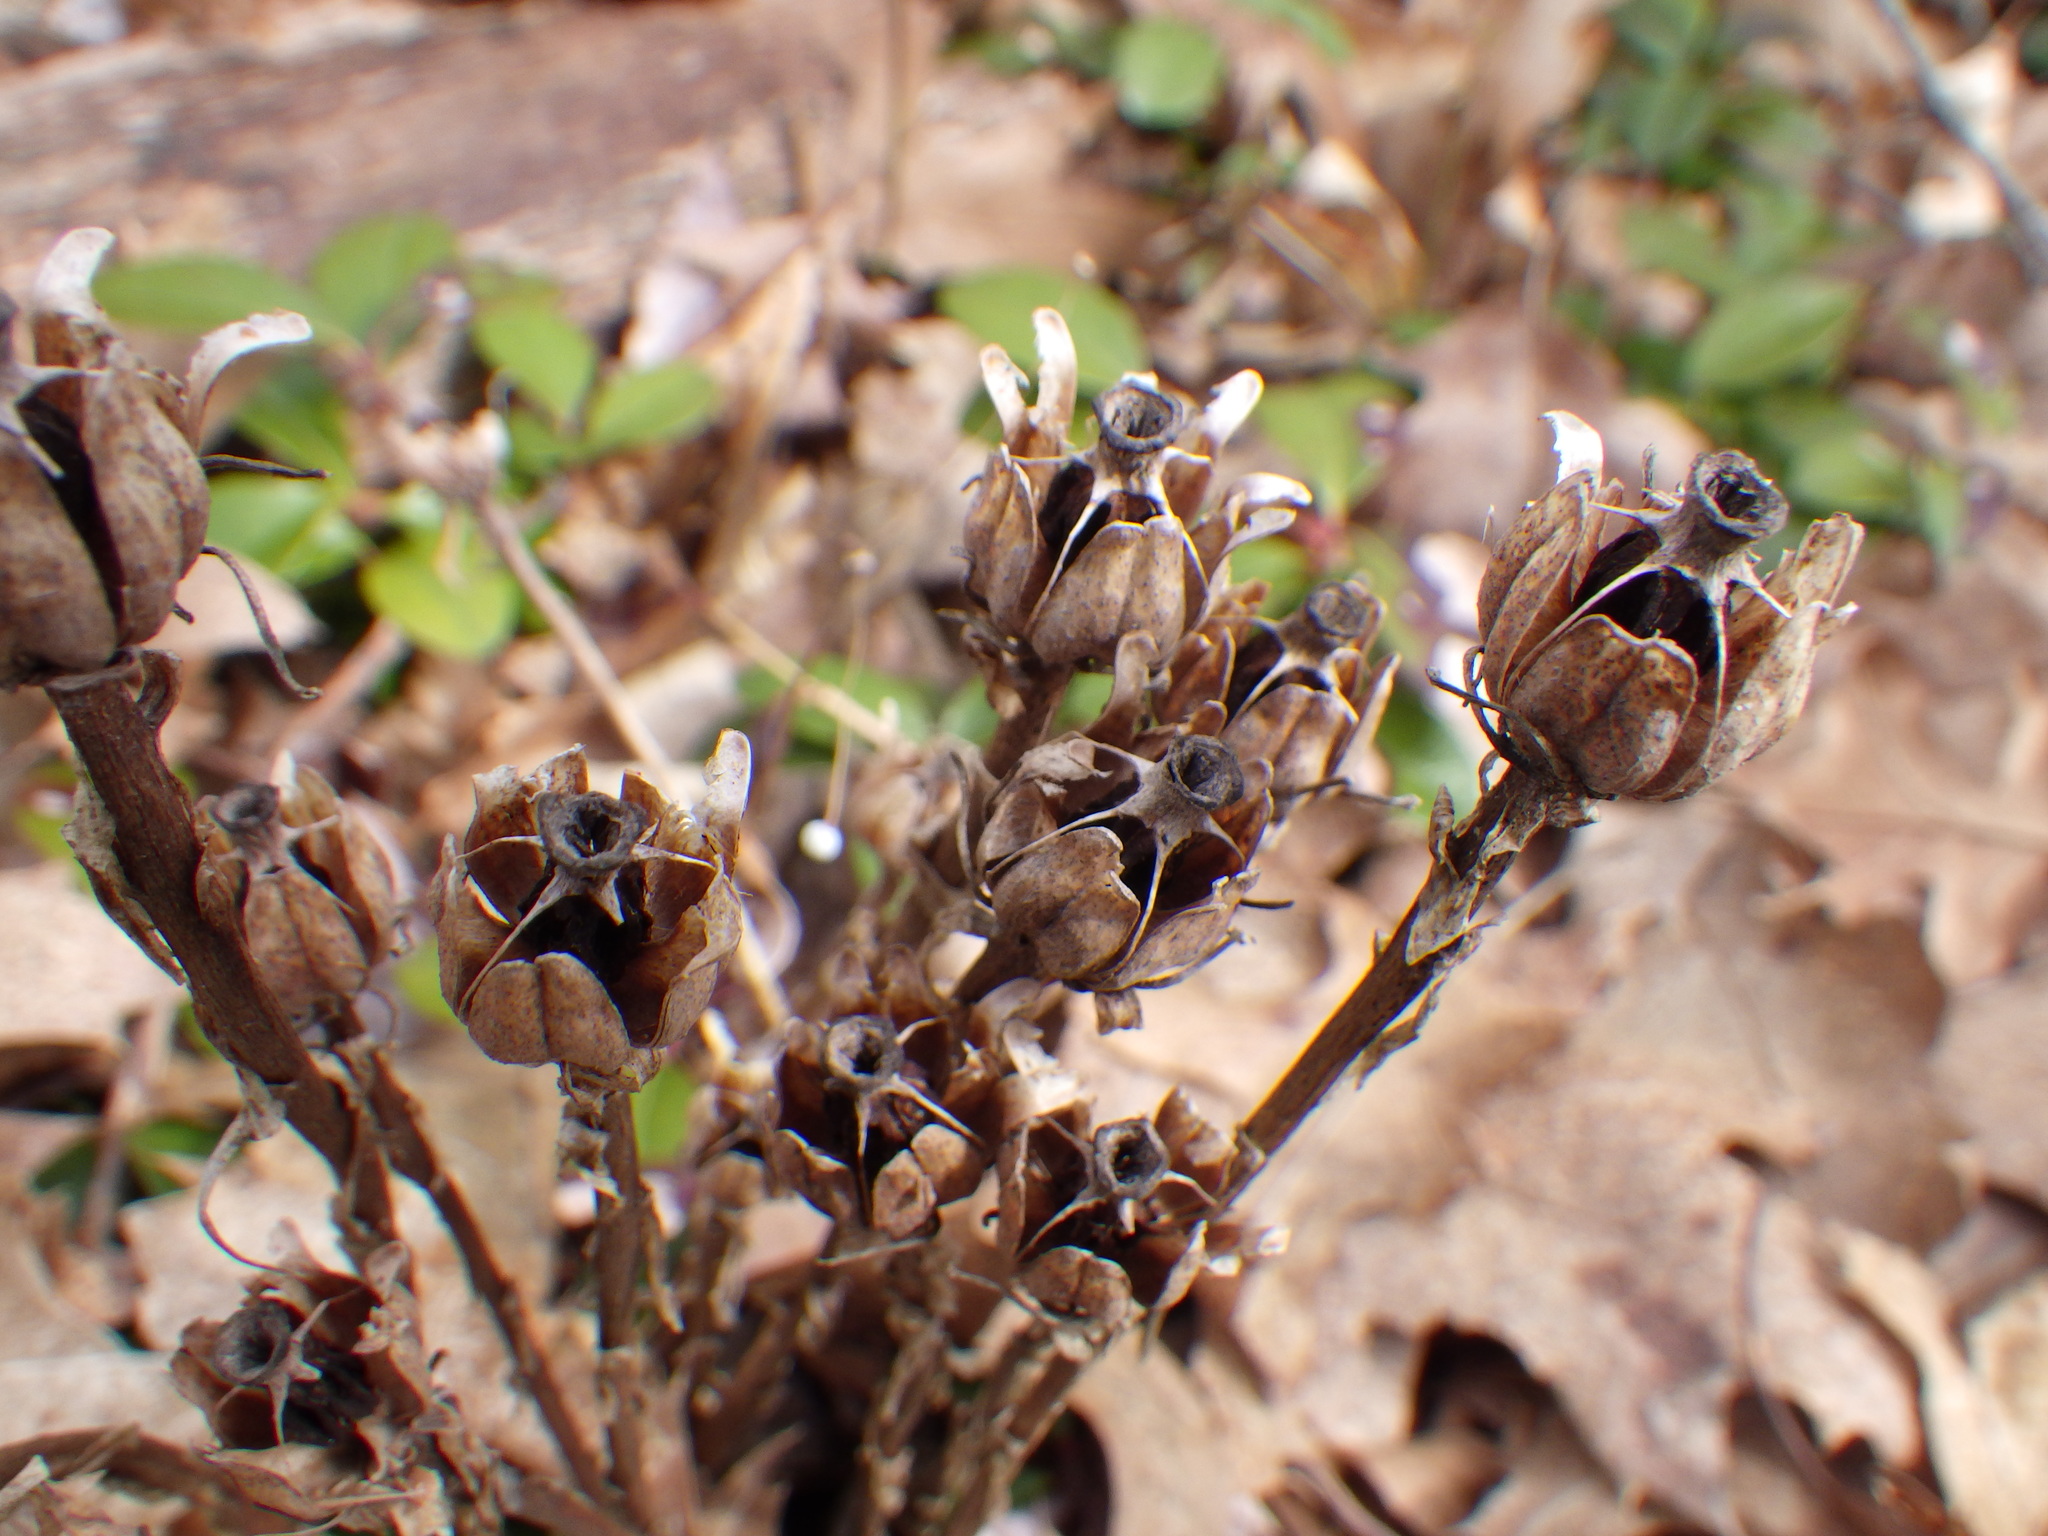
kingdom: Plantae
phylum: Tracheophyta
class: Magnoliopsida
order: Ericales
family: Ericaceae
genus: Monotropa
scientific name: Monotropa uniflora
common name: Convulsion root
